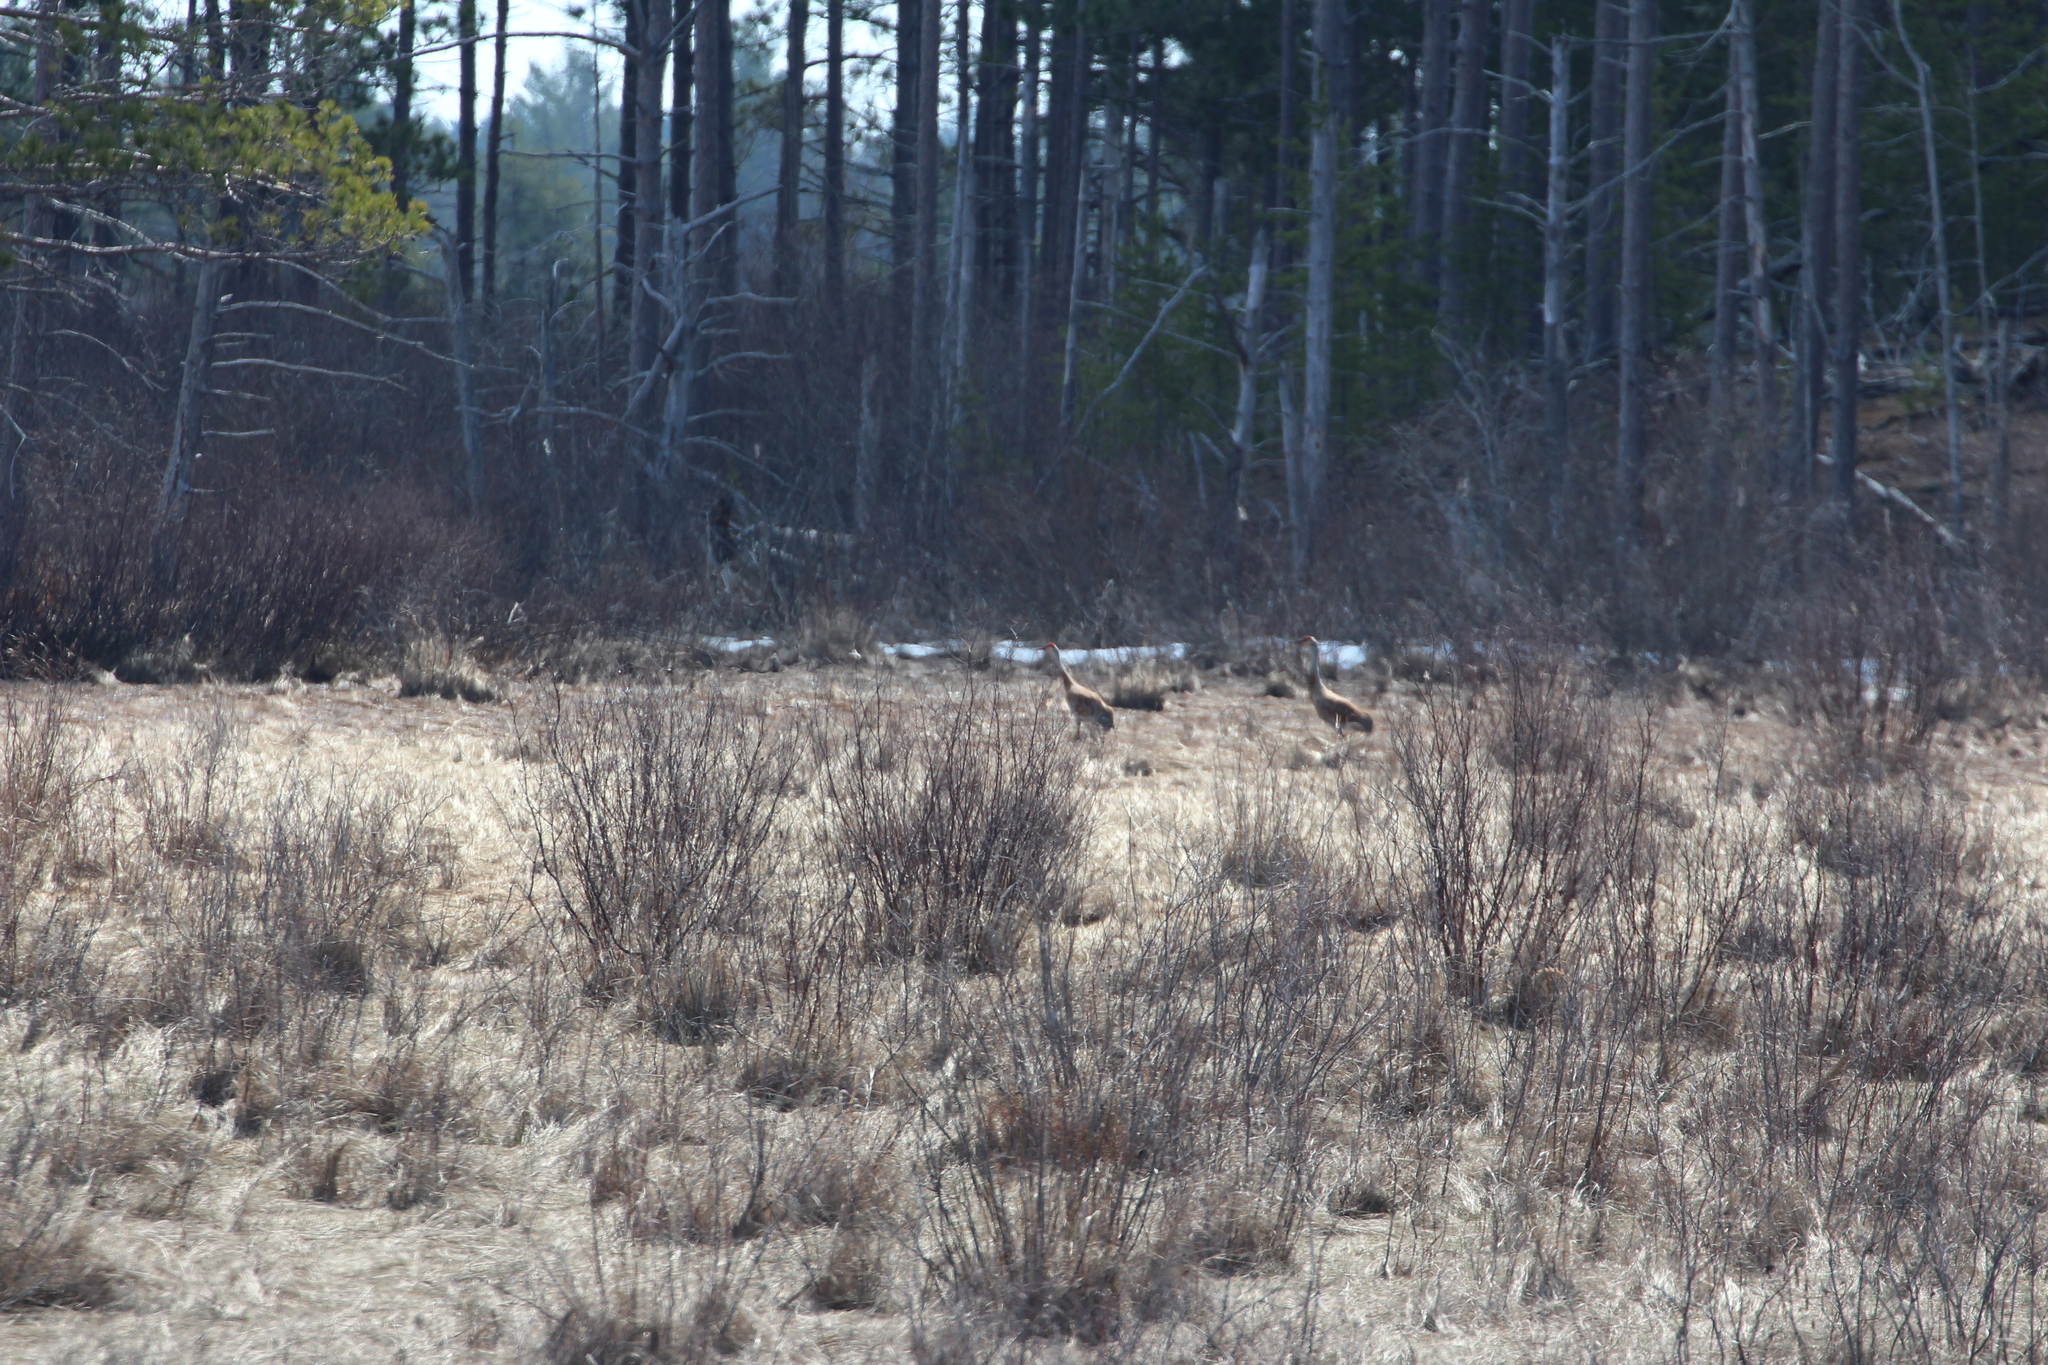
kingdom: Animalia
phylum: Chordata
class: Aves
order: Gruiformes
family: Gruidae
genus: Grus
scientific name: Grus canadensis
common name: Sandhill crane
